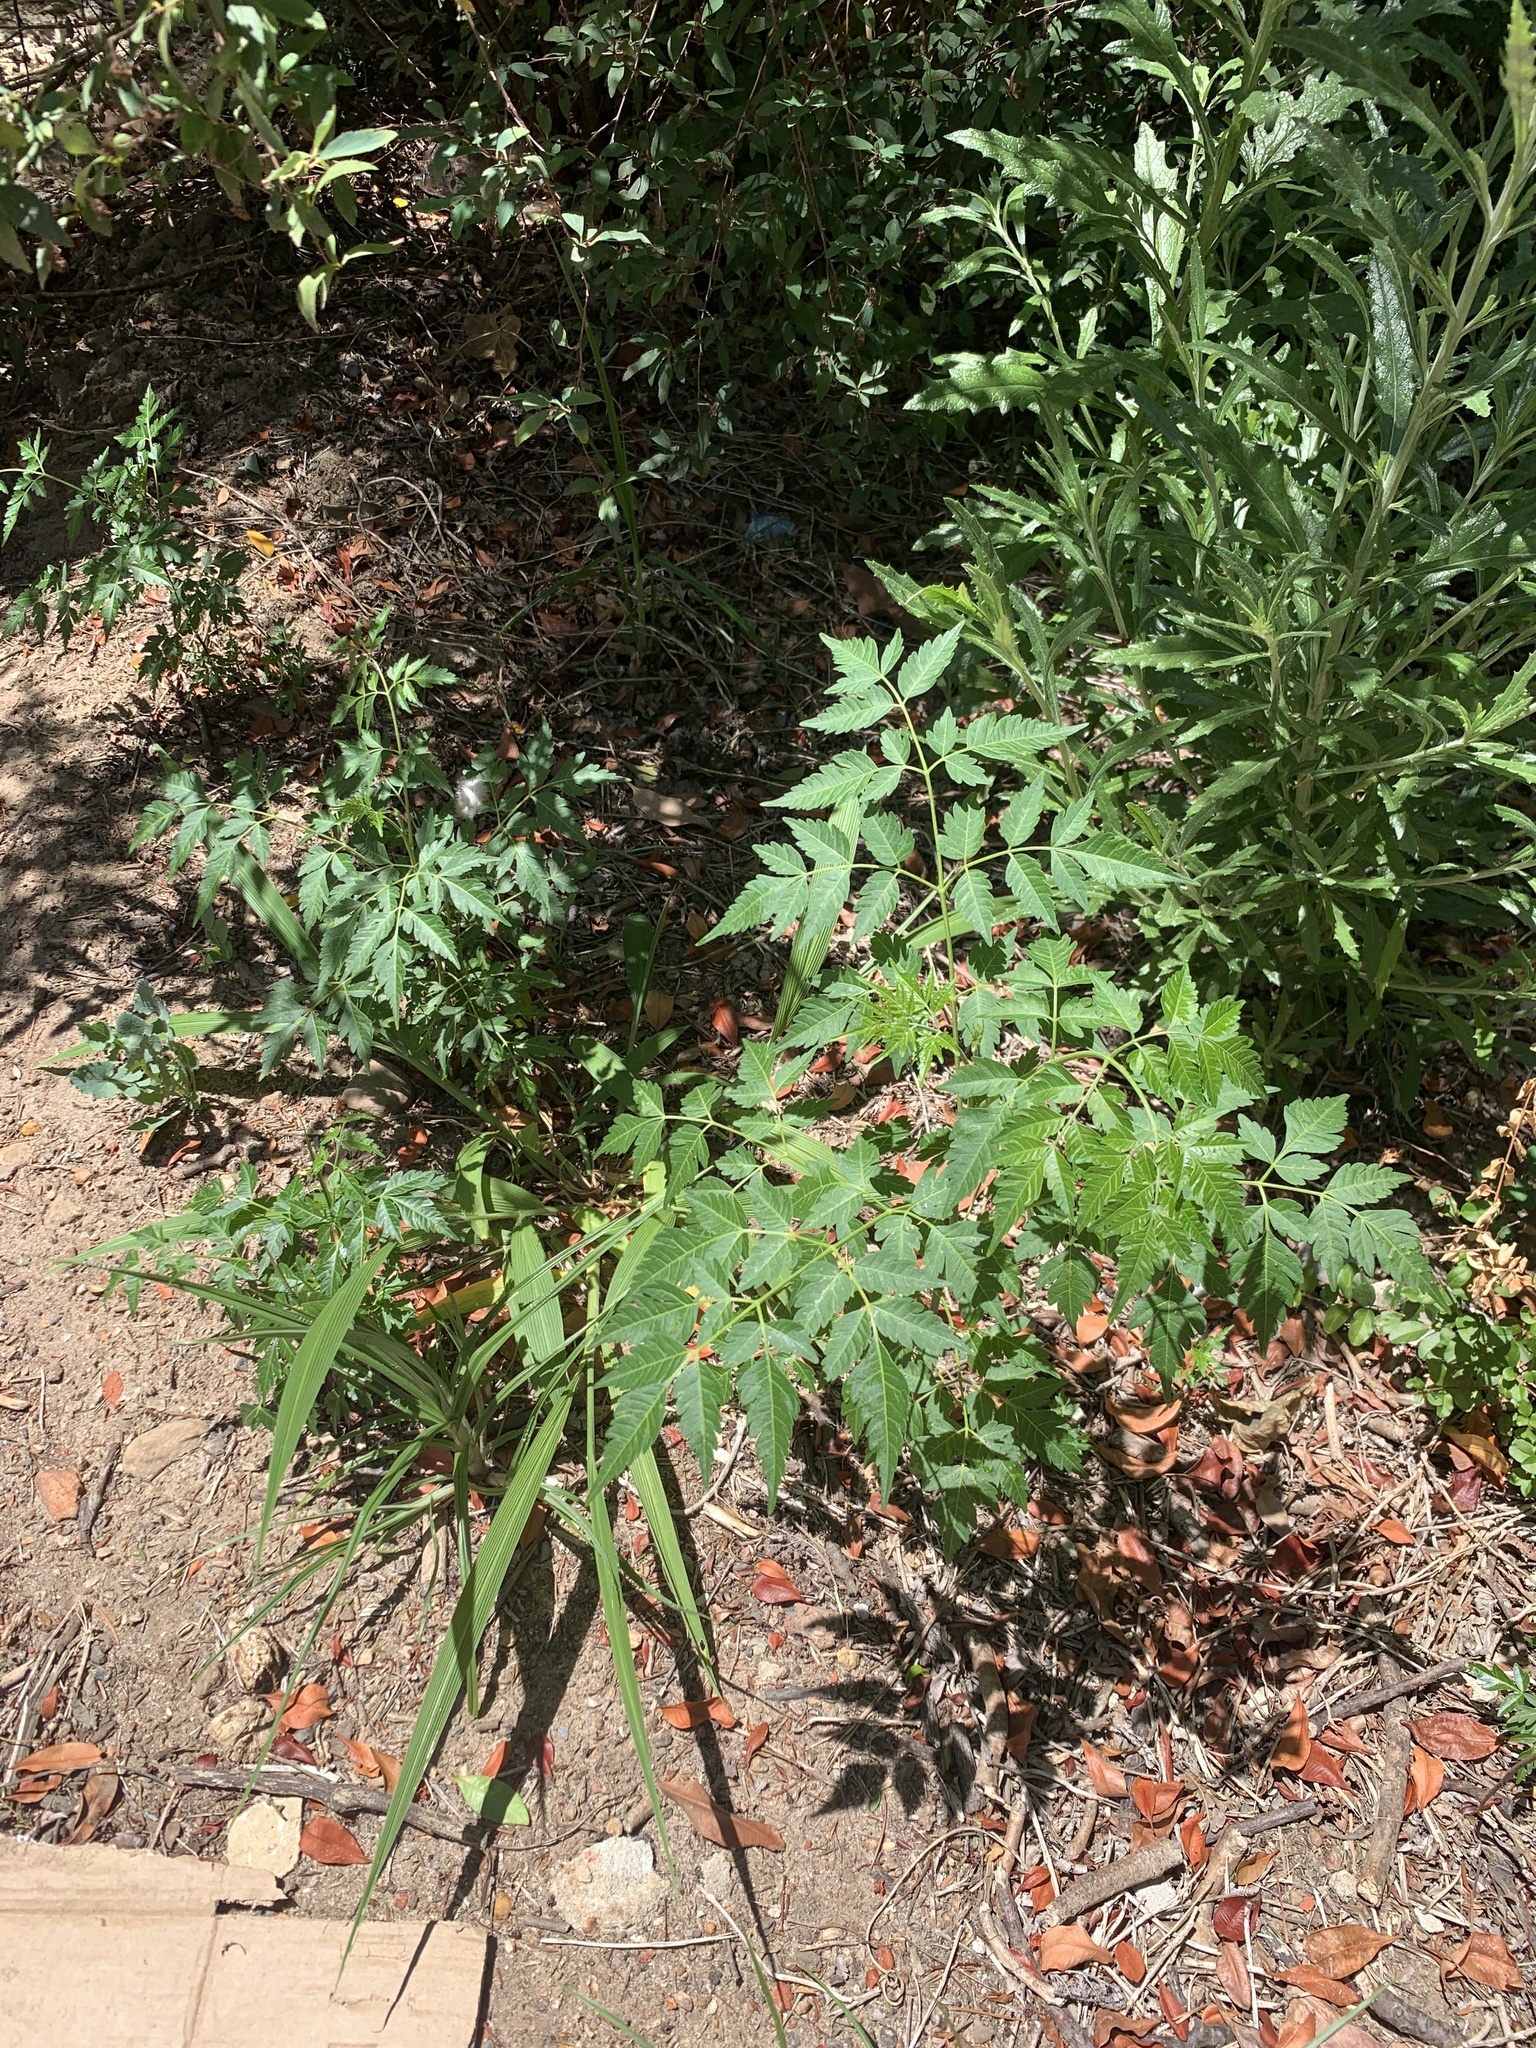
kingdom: Plantae
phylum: Tracheophyta
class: Magnoliopsida
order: Sapindales
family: Meliaceae
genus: Melia
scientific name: Melia azedarach
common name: Chinaberrytree
